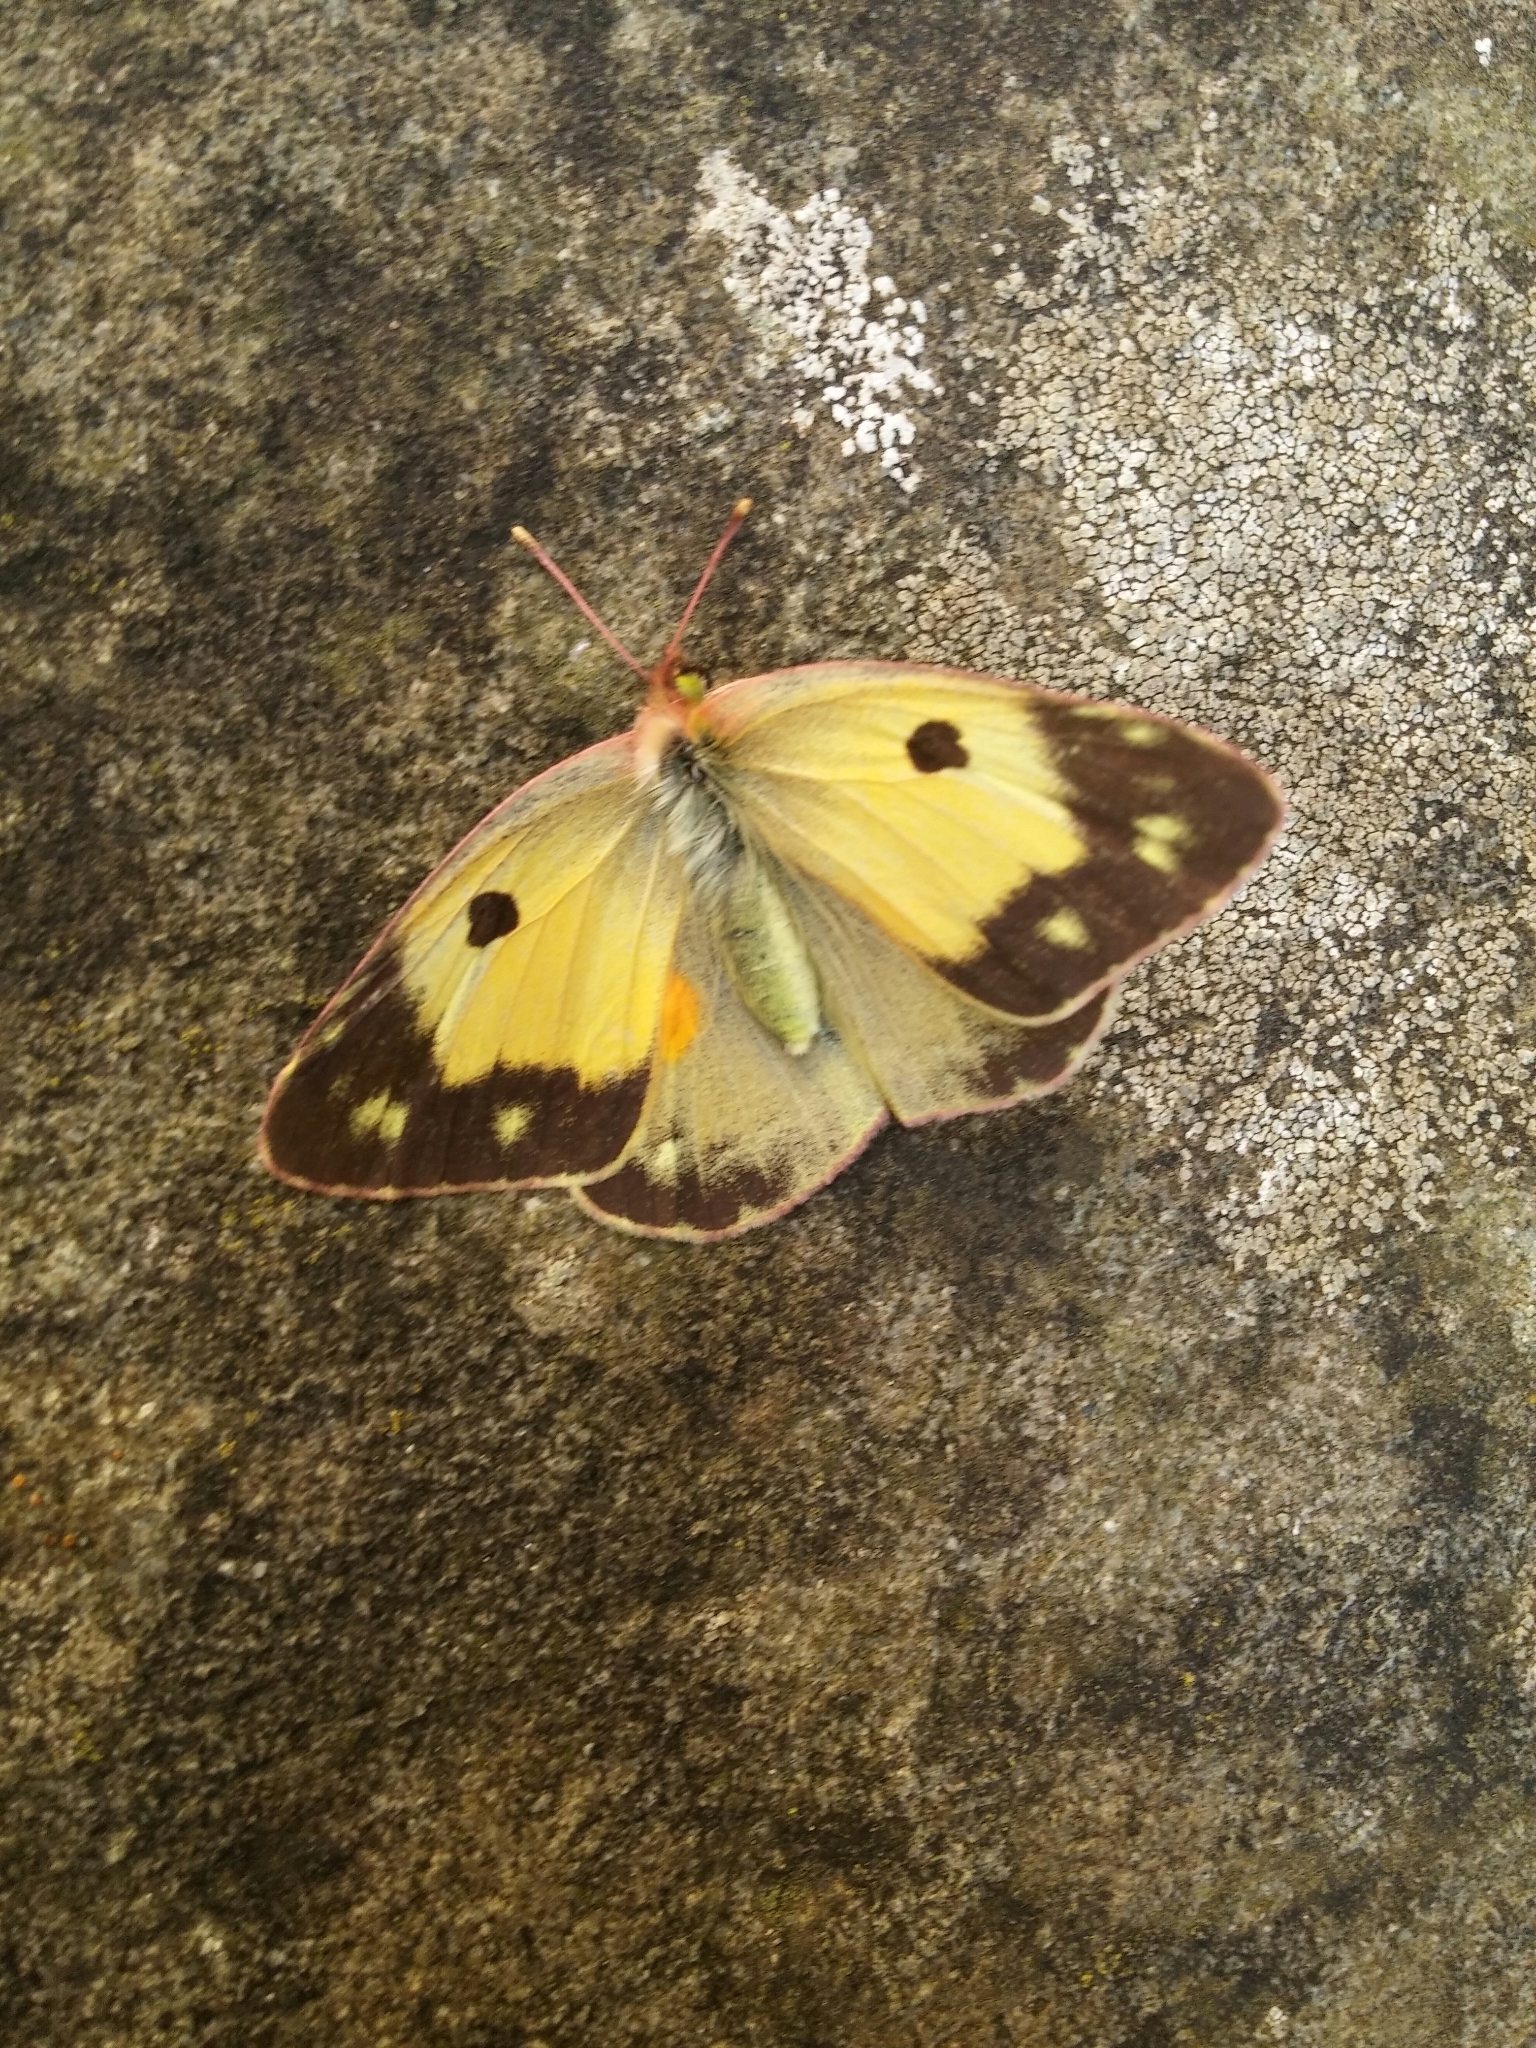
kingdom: Animalia
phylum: Arthropoda
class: Insecta
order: Lepidoptera
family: Pieridae
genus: Colias
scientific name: Colias croceus
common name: Clouded yellow
